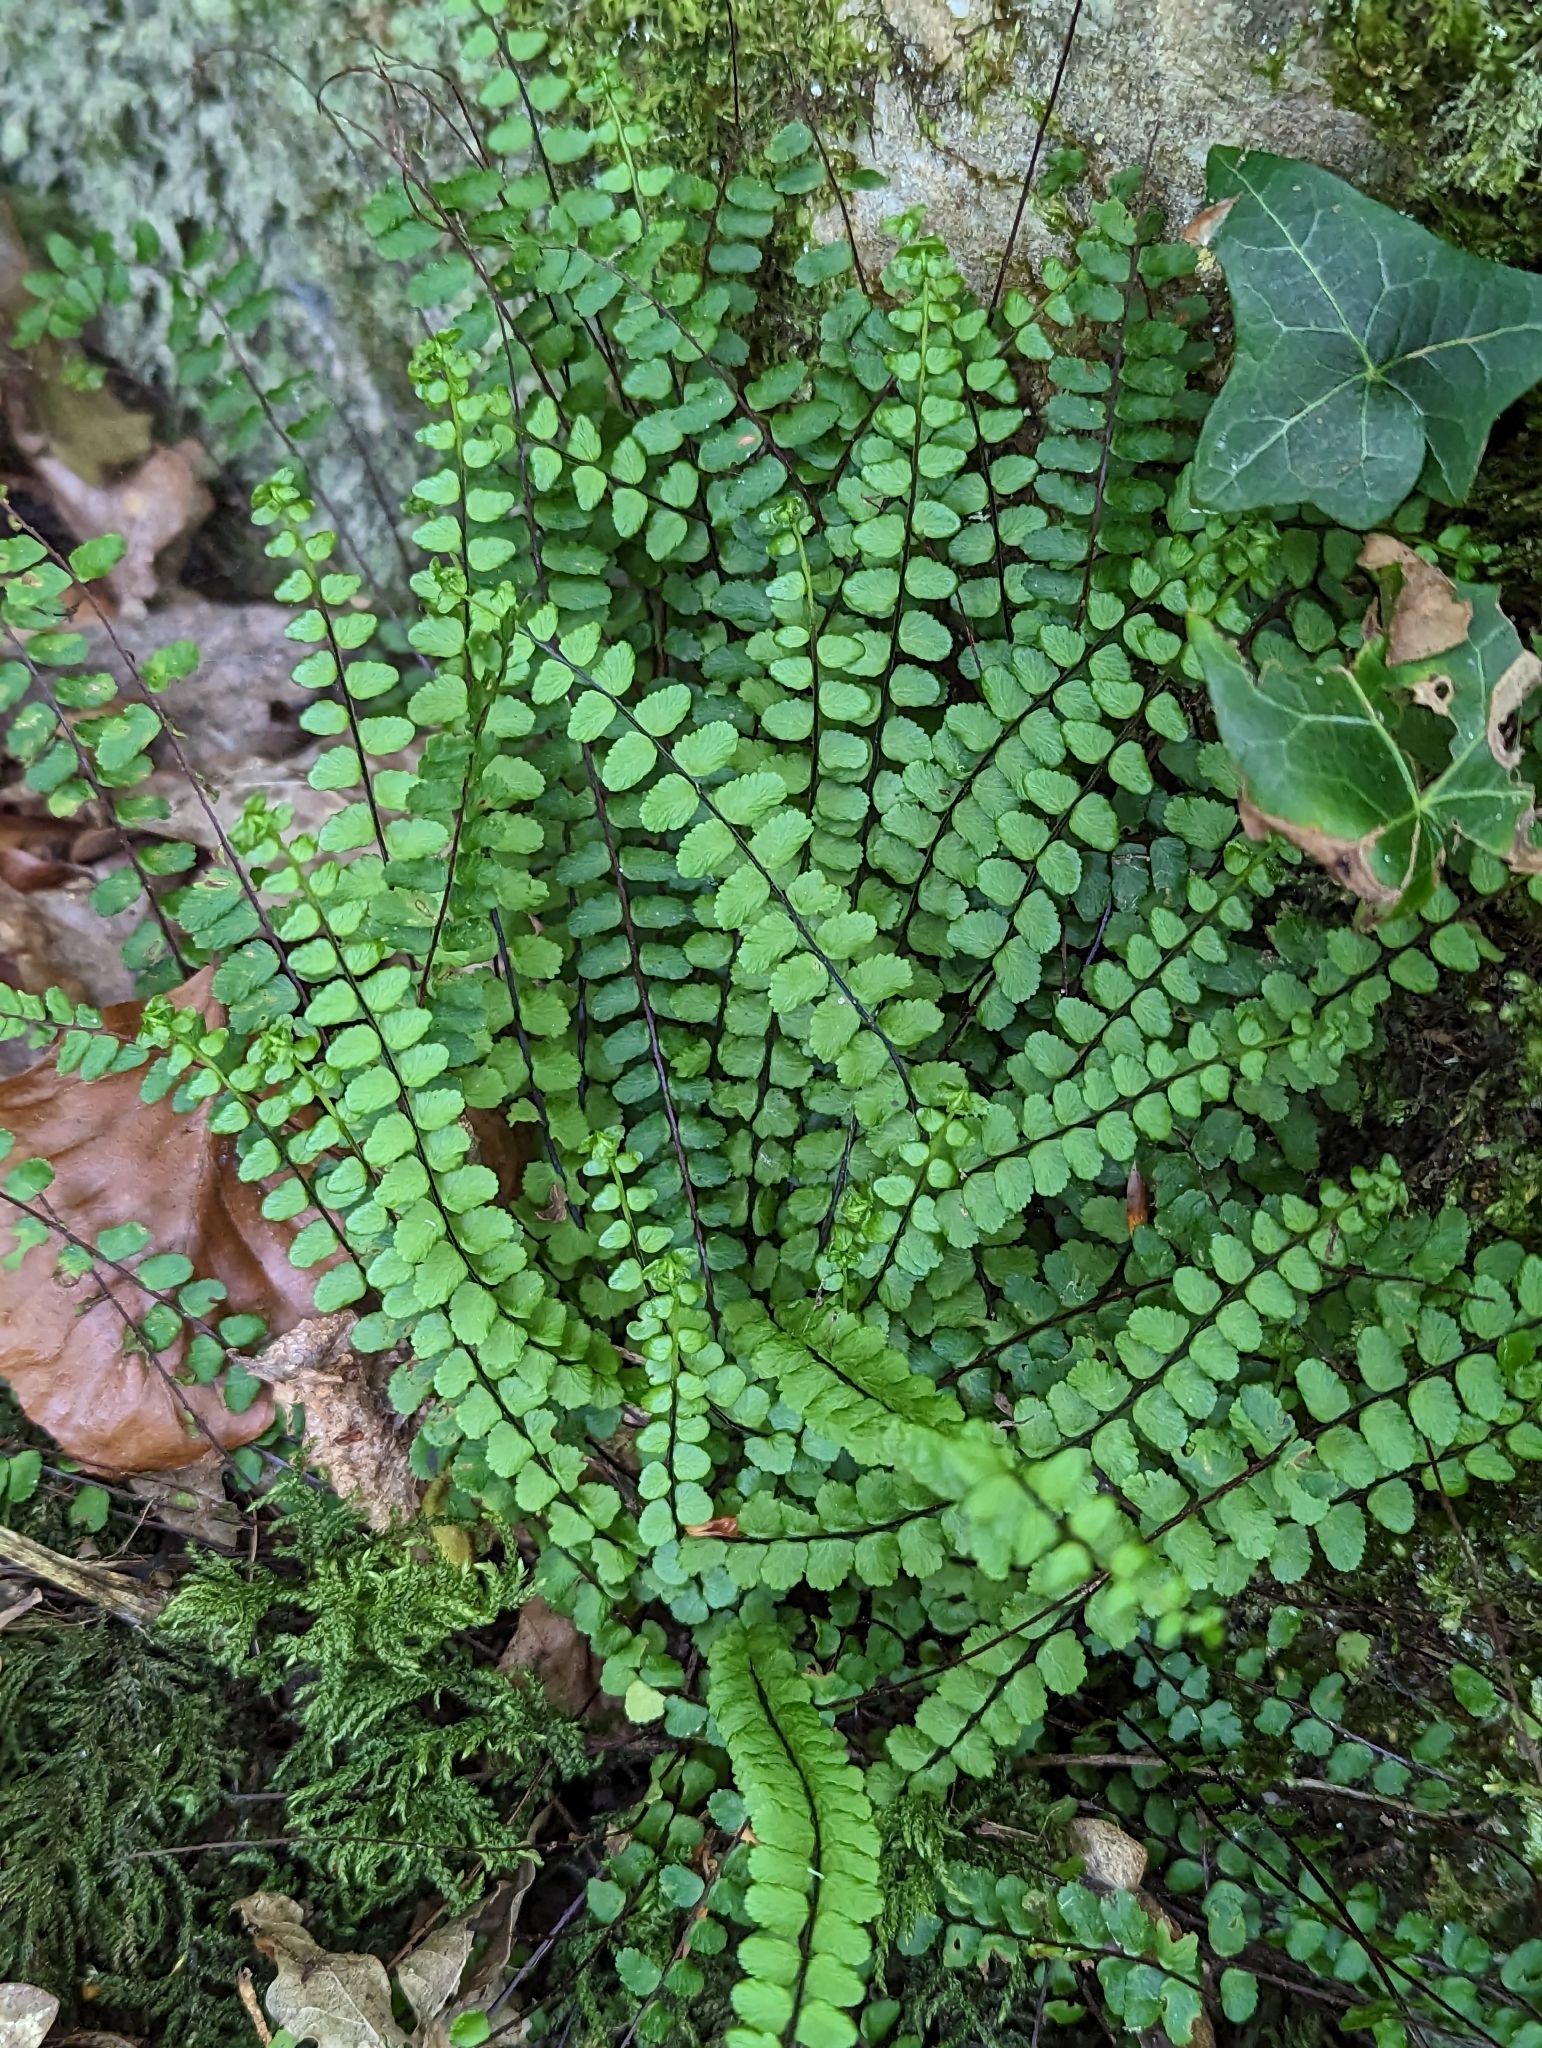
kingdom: Plantae
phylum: Tracheophyta
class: Polypodiopsida
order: Polypodiales
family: Aspleniaceae
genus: Asplenium
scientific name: Asplenium trichomanes
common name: Maidenhair spleenwort
